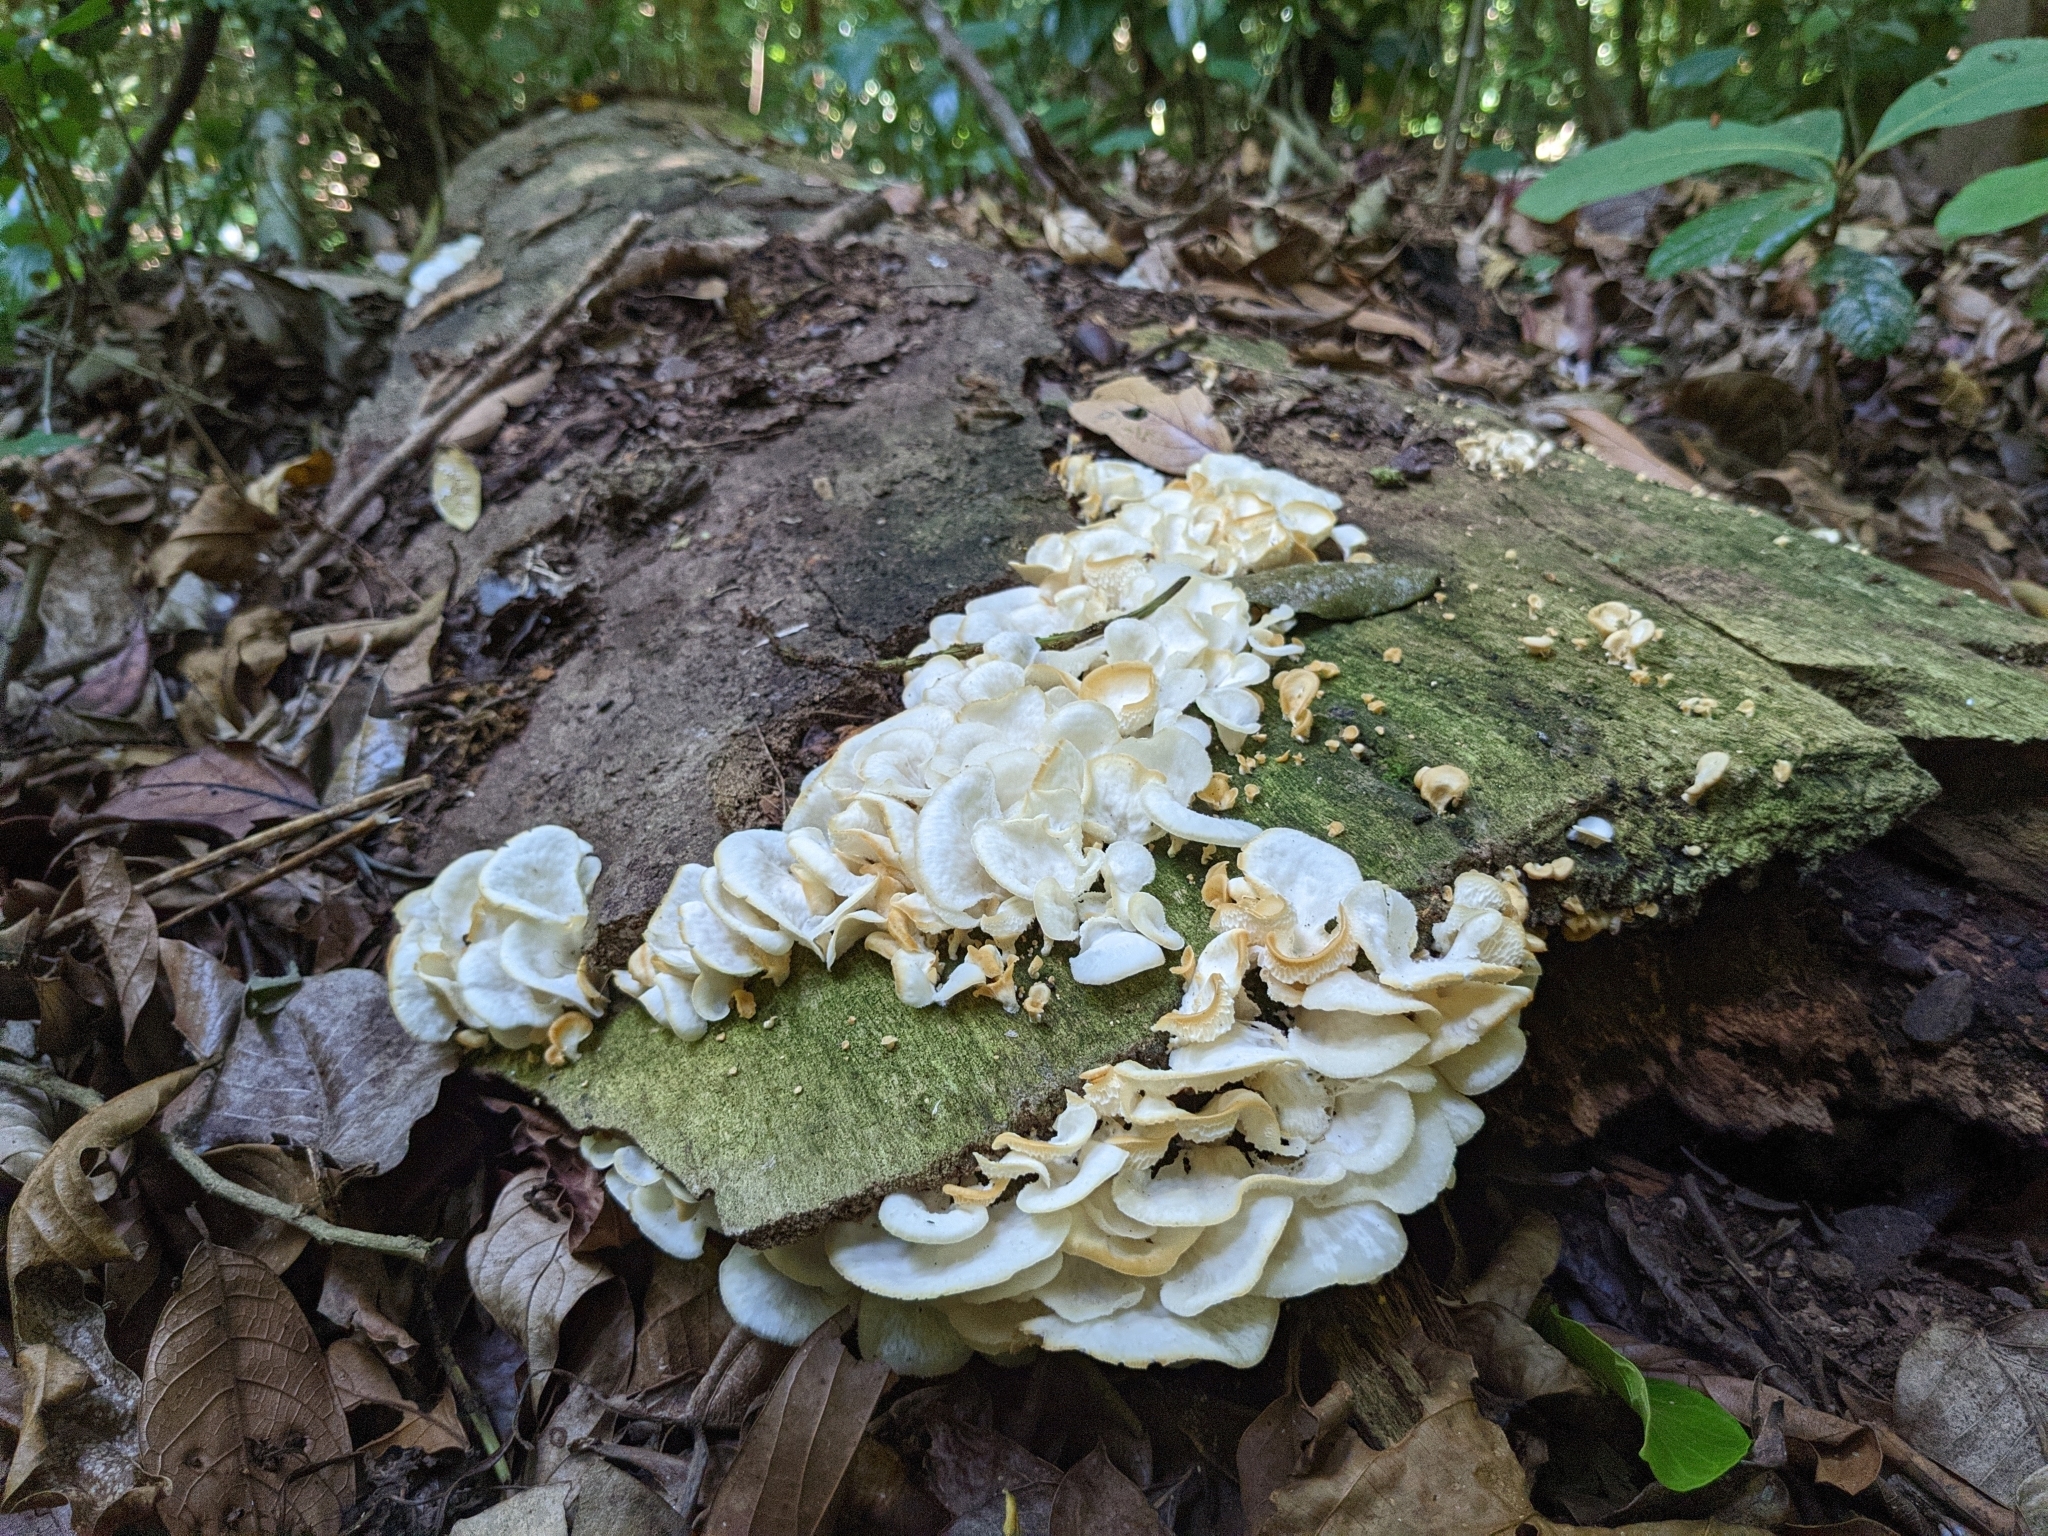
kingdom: Fungi
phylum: Basidiomycota
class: Agaricomycetes
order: Polyporales
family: Polyporaceae
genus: Favolus
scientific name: Favolus tenuiculus
